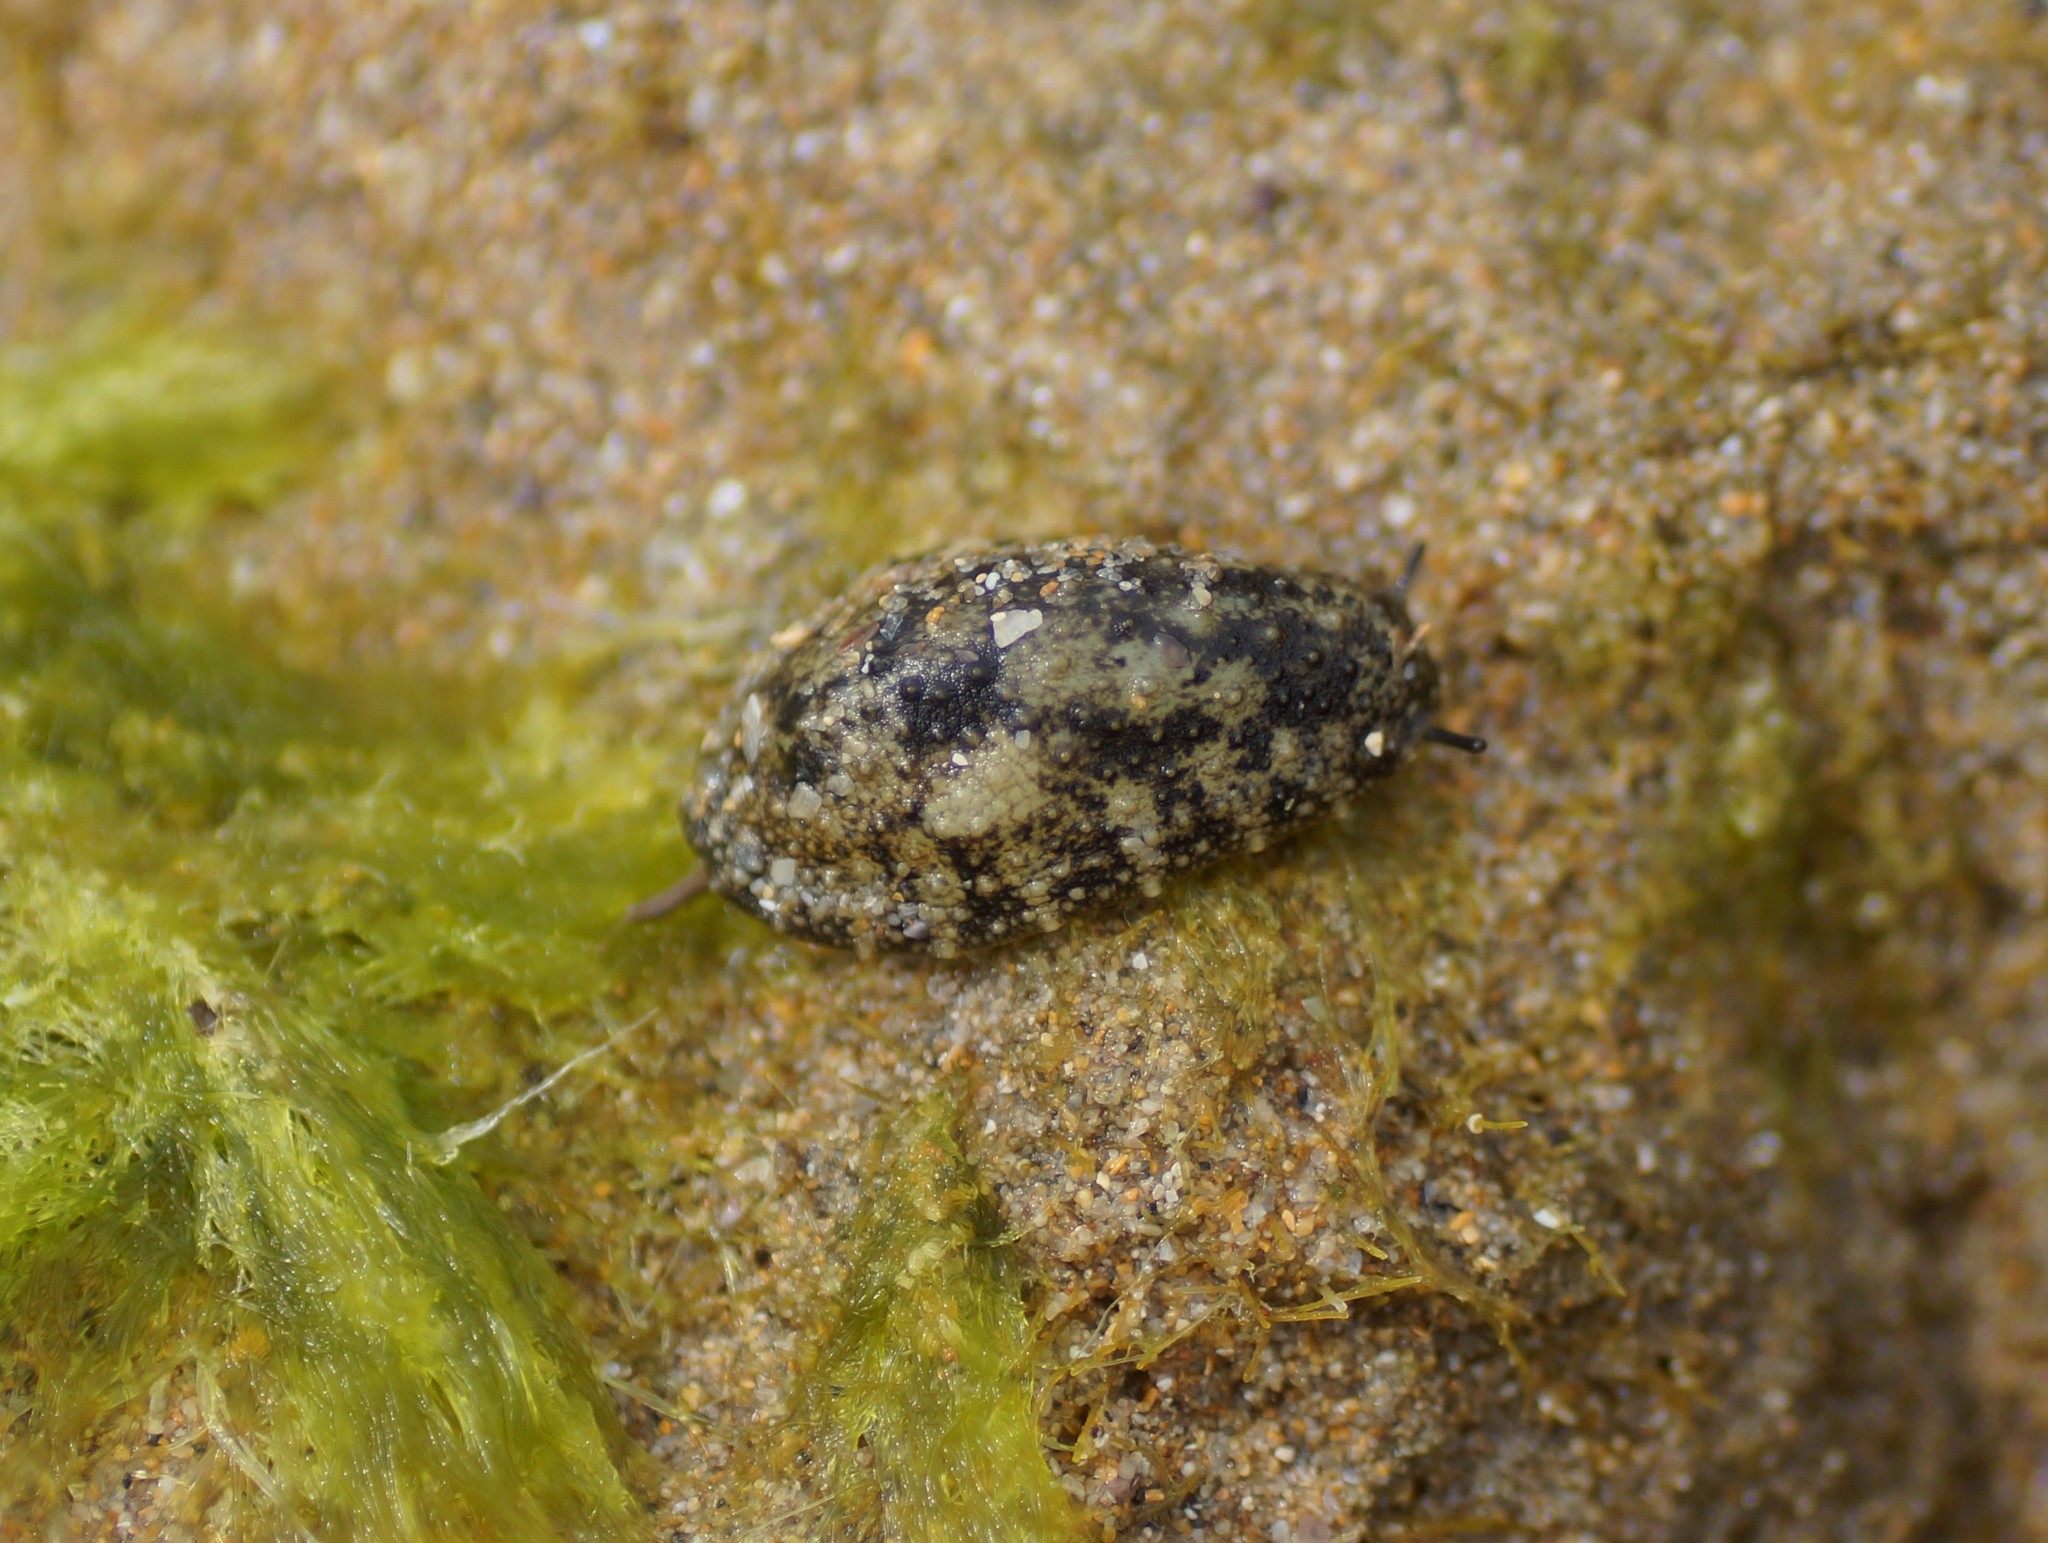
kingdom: Animalia
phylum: Mollusca
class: Gastropoda
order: Systellommatophora
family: Onchidiidae
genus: Onchidella
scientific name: Onchidella nigricans
